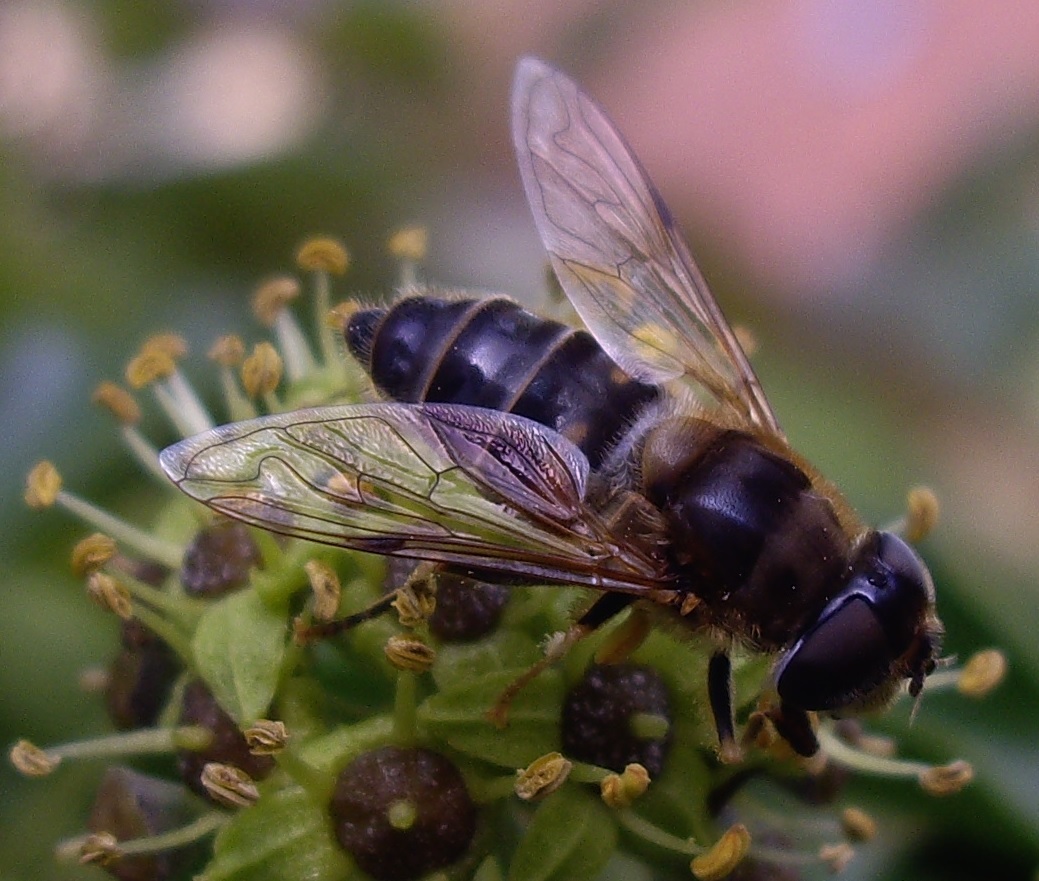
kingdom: Animalia
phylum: Arthropoda
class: Insecta
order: Diptera
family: Syrphidae
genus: Eristalis
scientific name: Eristalis pertinax
